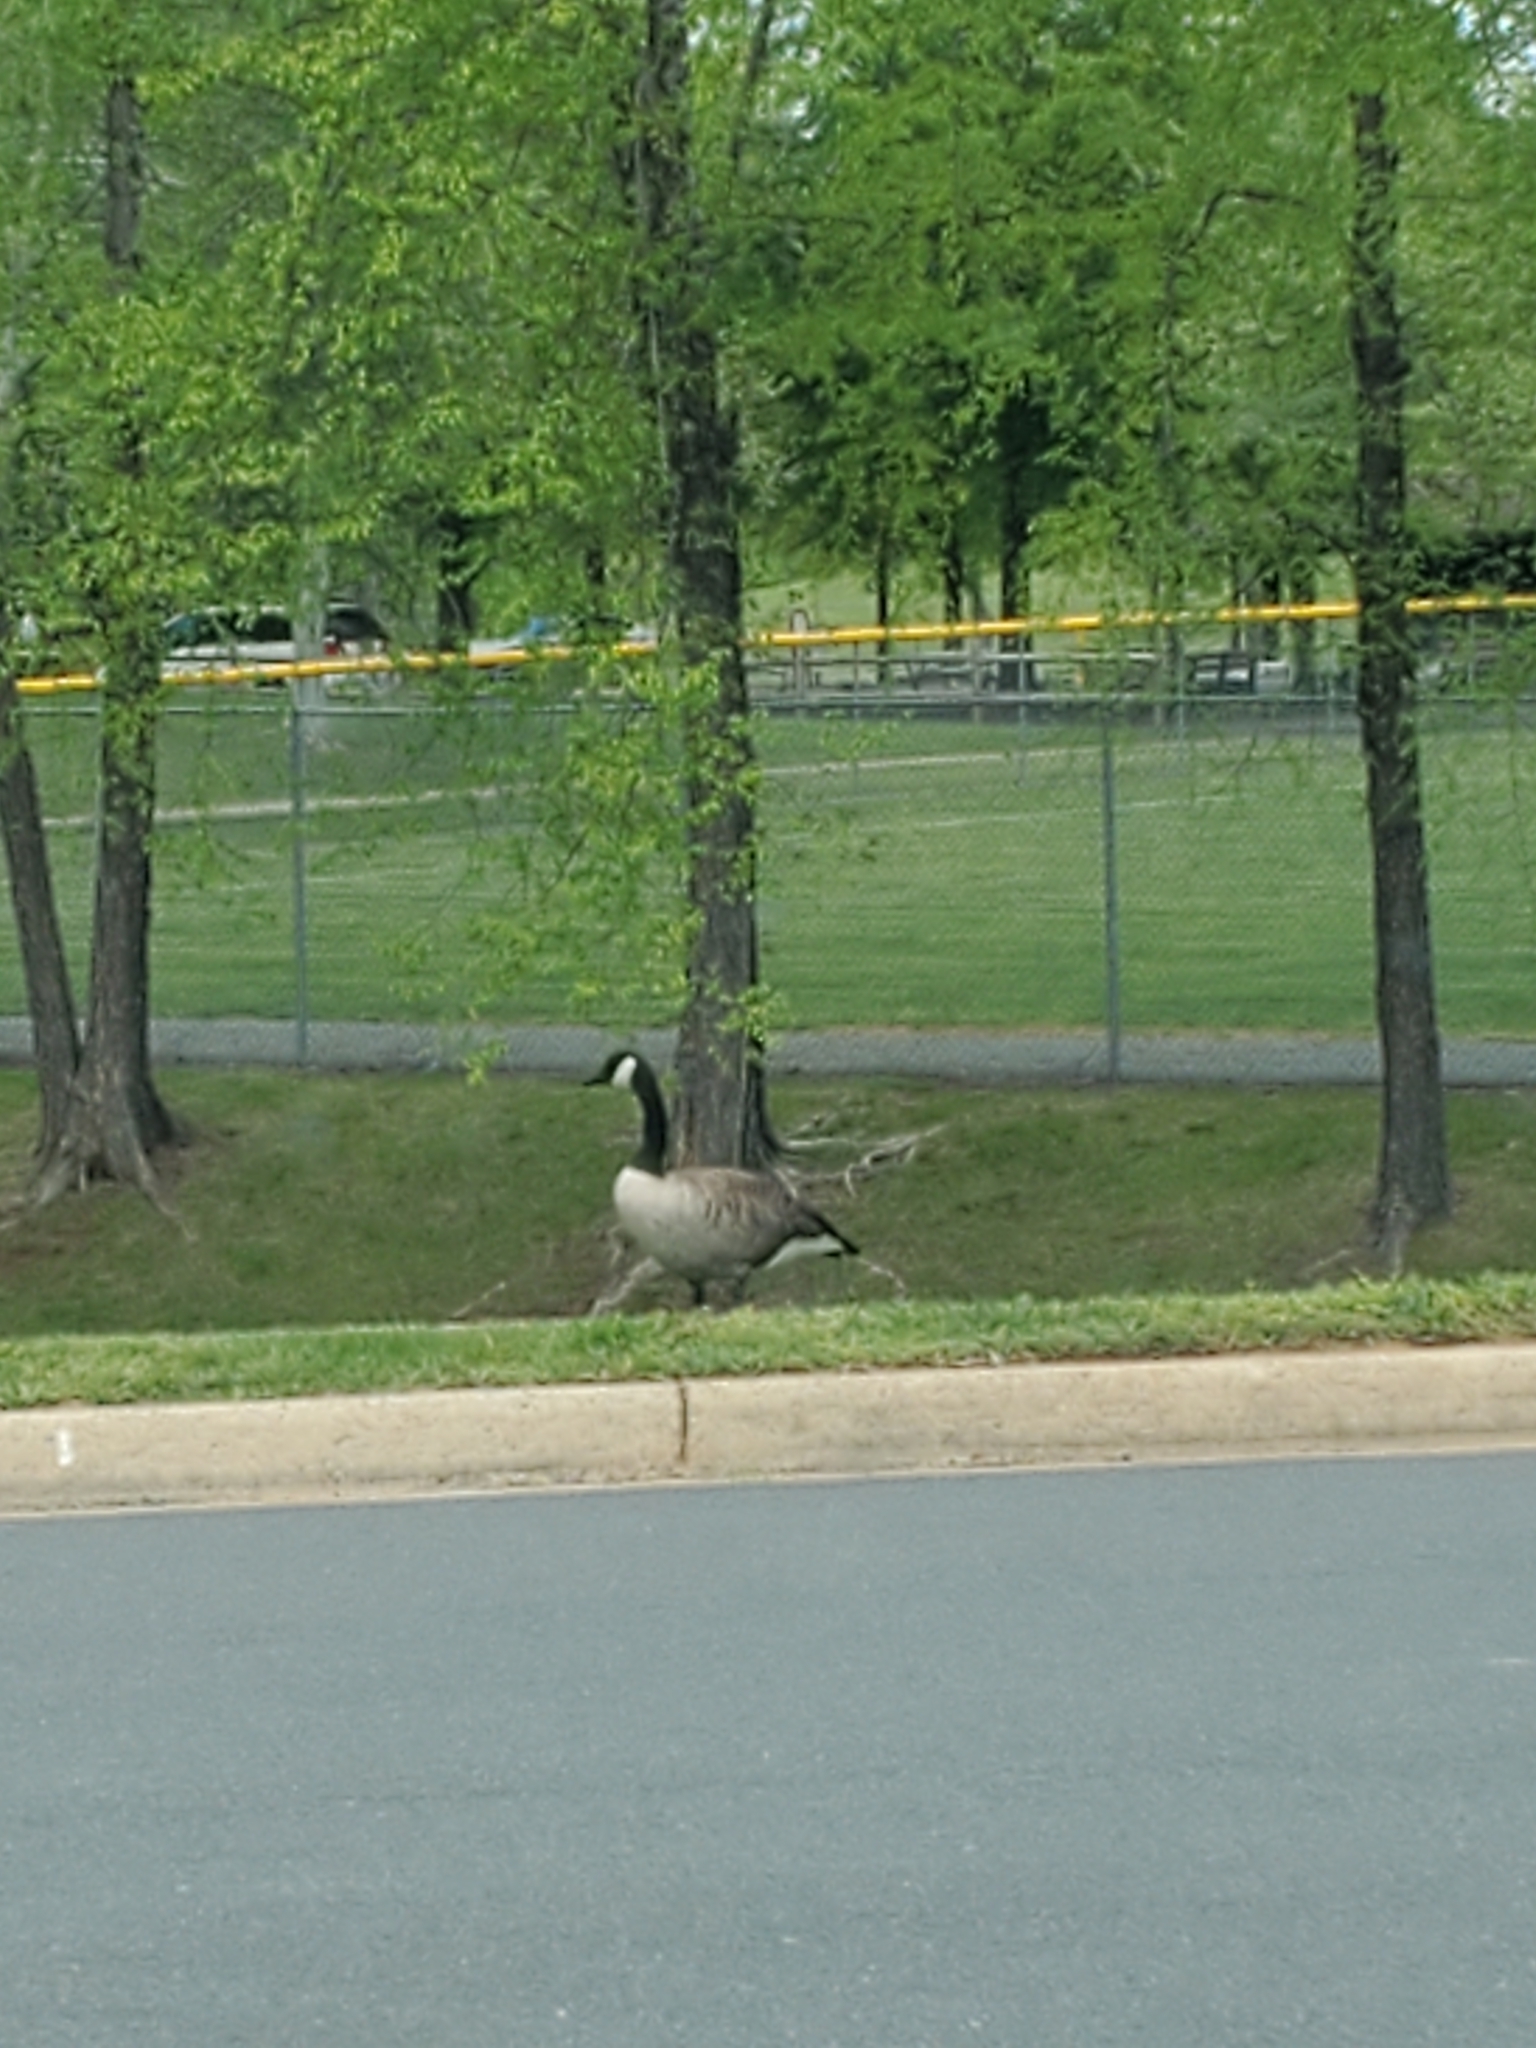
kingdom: Animalia
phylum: Chordata
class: Aves
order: Anseriformes
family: Anatidae
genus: Branta
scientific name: Branta canadensis
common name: Canada goose
